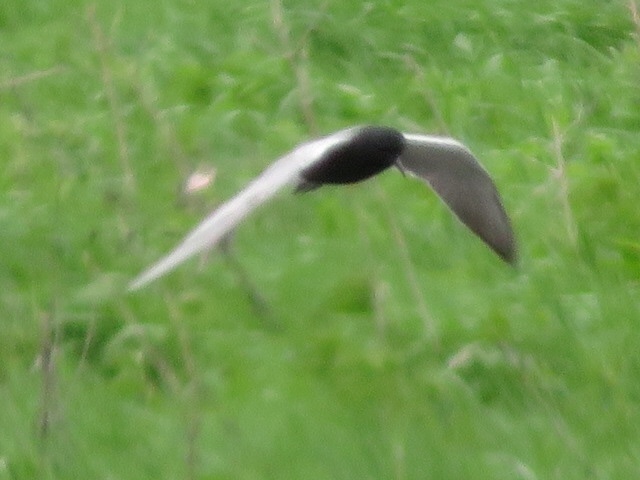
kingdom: Animalia
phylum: Chordata
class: Aves
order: Charadriiformes
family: Laridae
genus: Chlidonias
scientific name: Chlidonias niger
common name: Black tern
